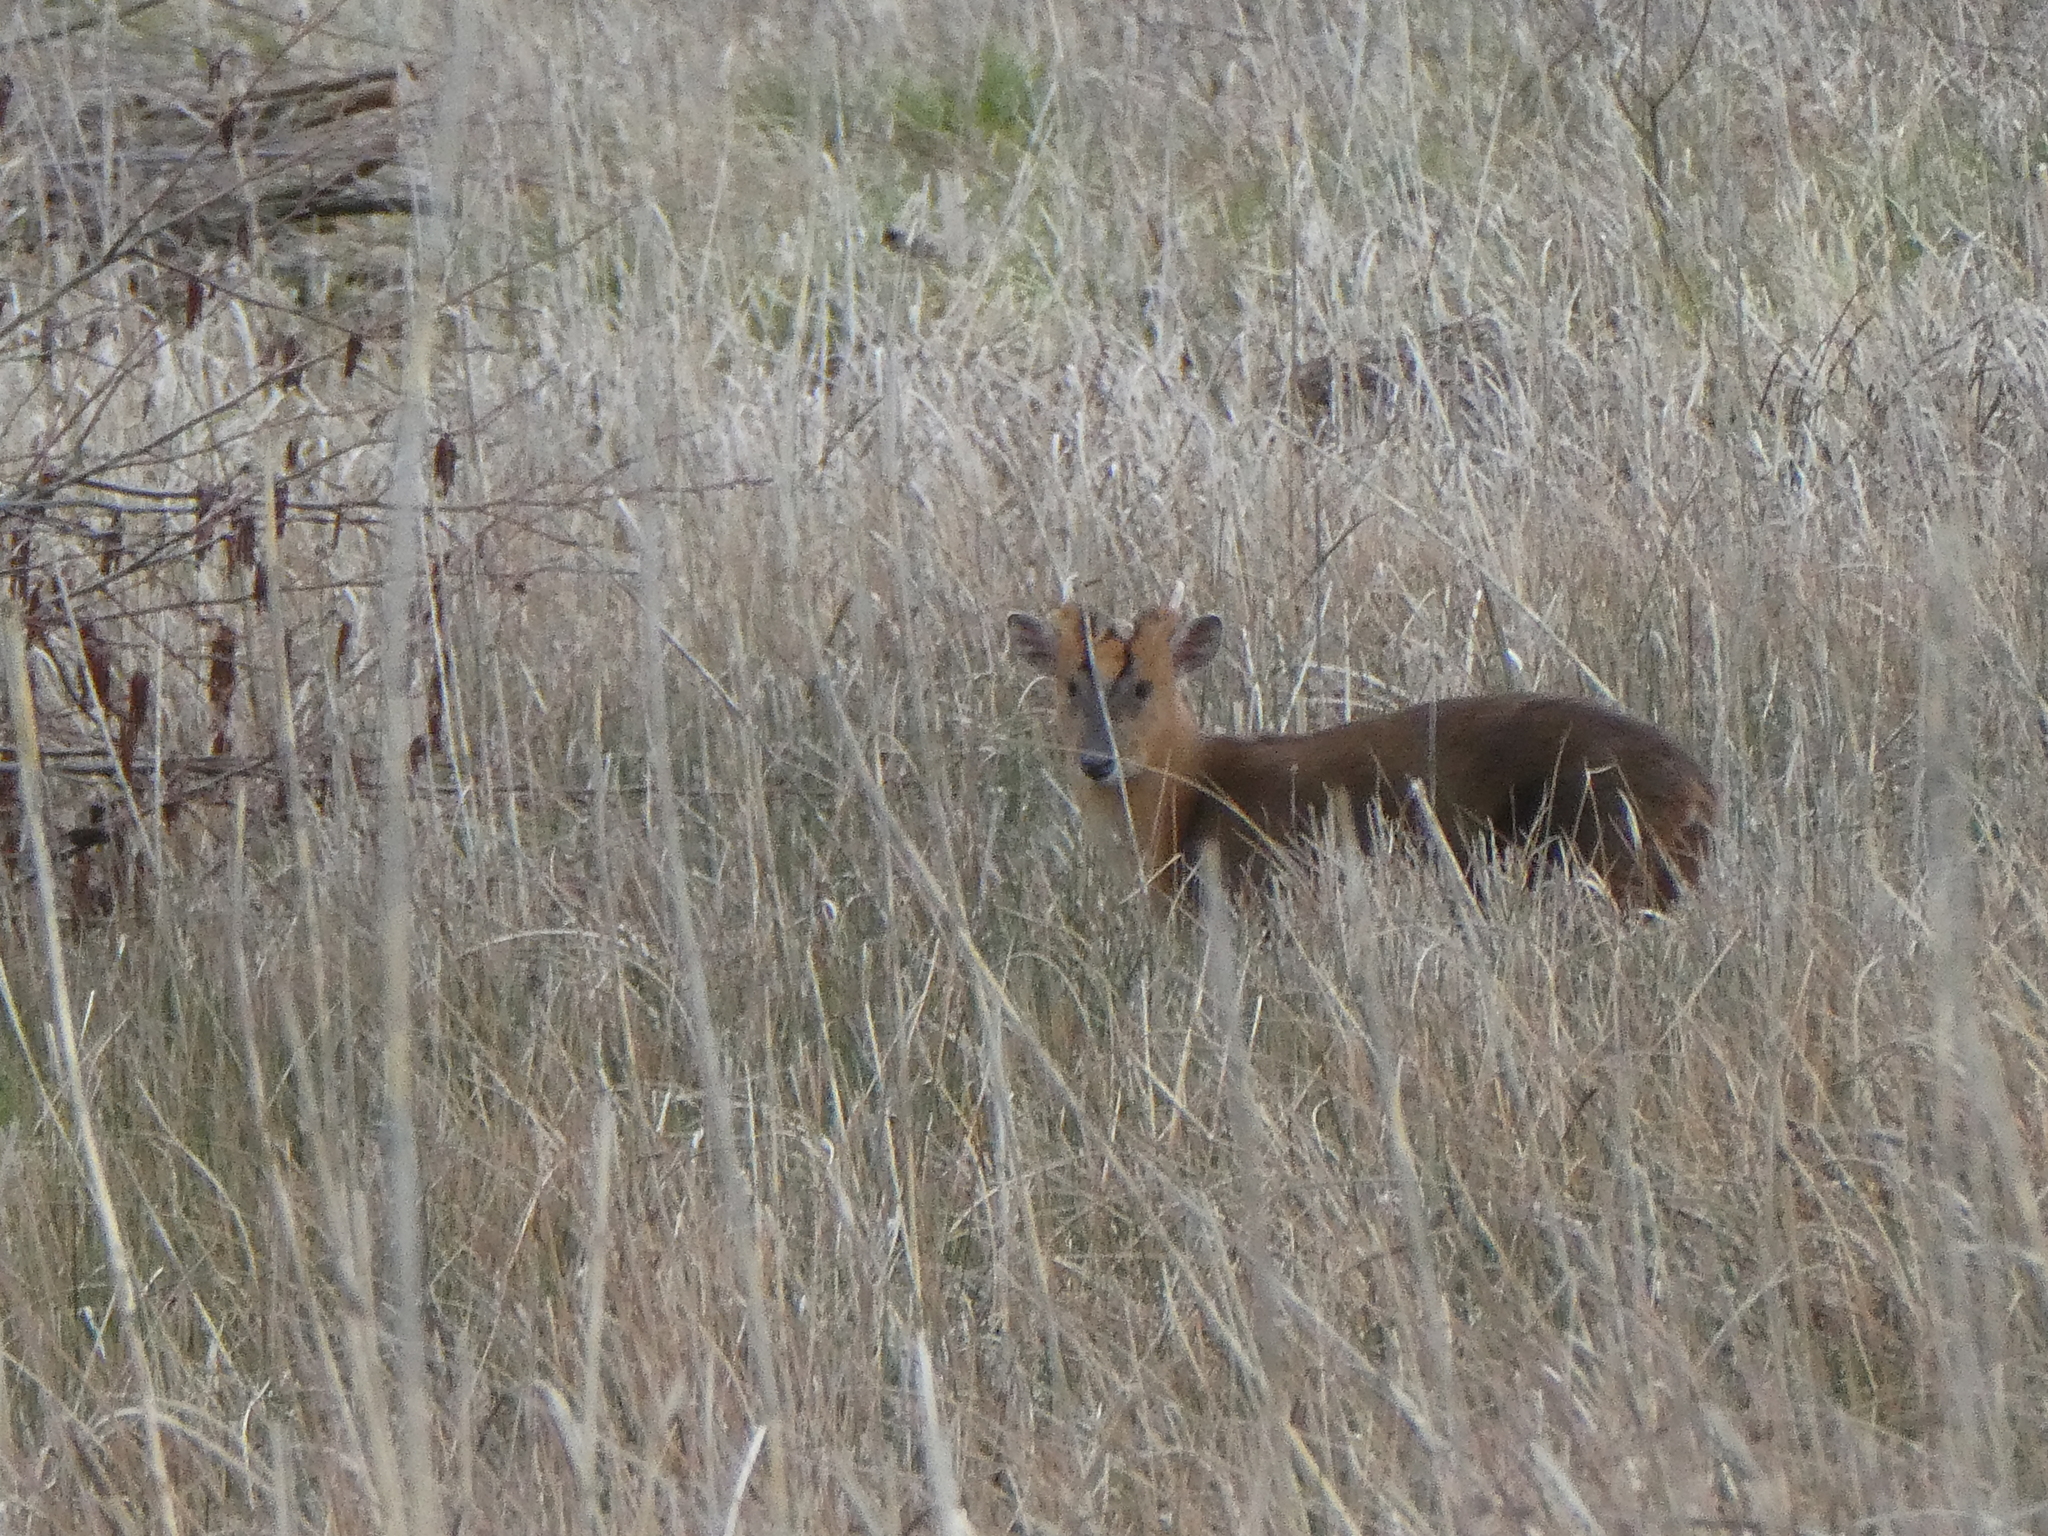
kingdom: Animalia
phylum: Chordata
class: Mammalia
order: Artiodactyla
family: Cervidae
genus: Muntiacus
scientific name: Muntiacus reevesi
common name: Reeves' muntjac
